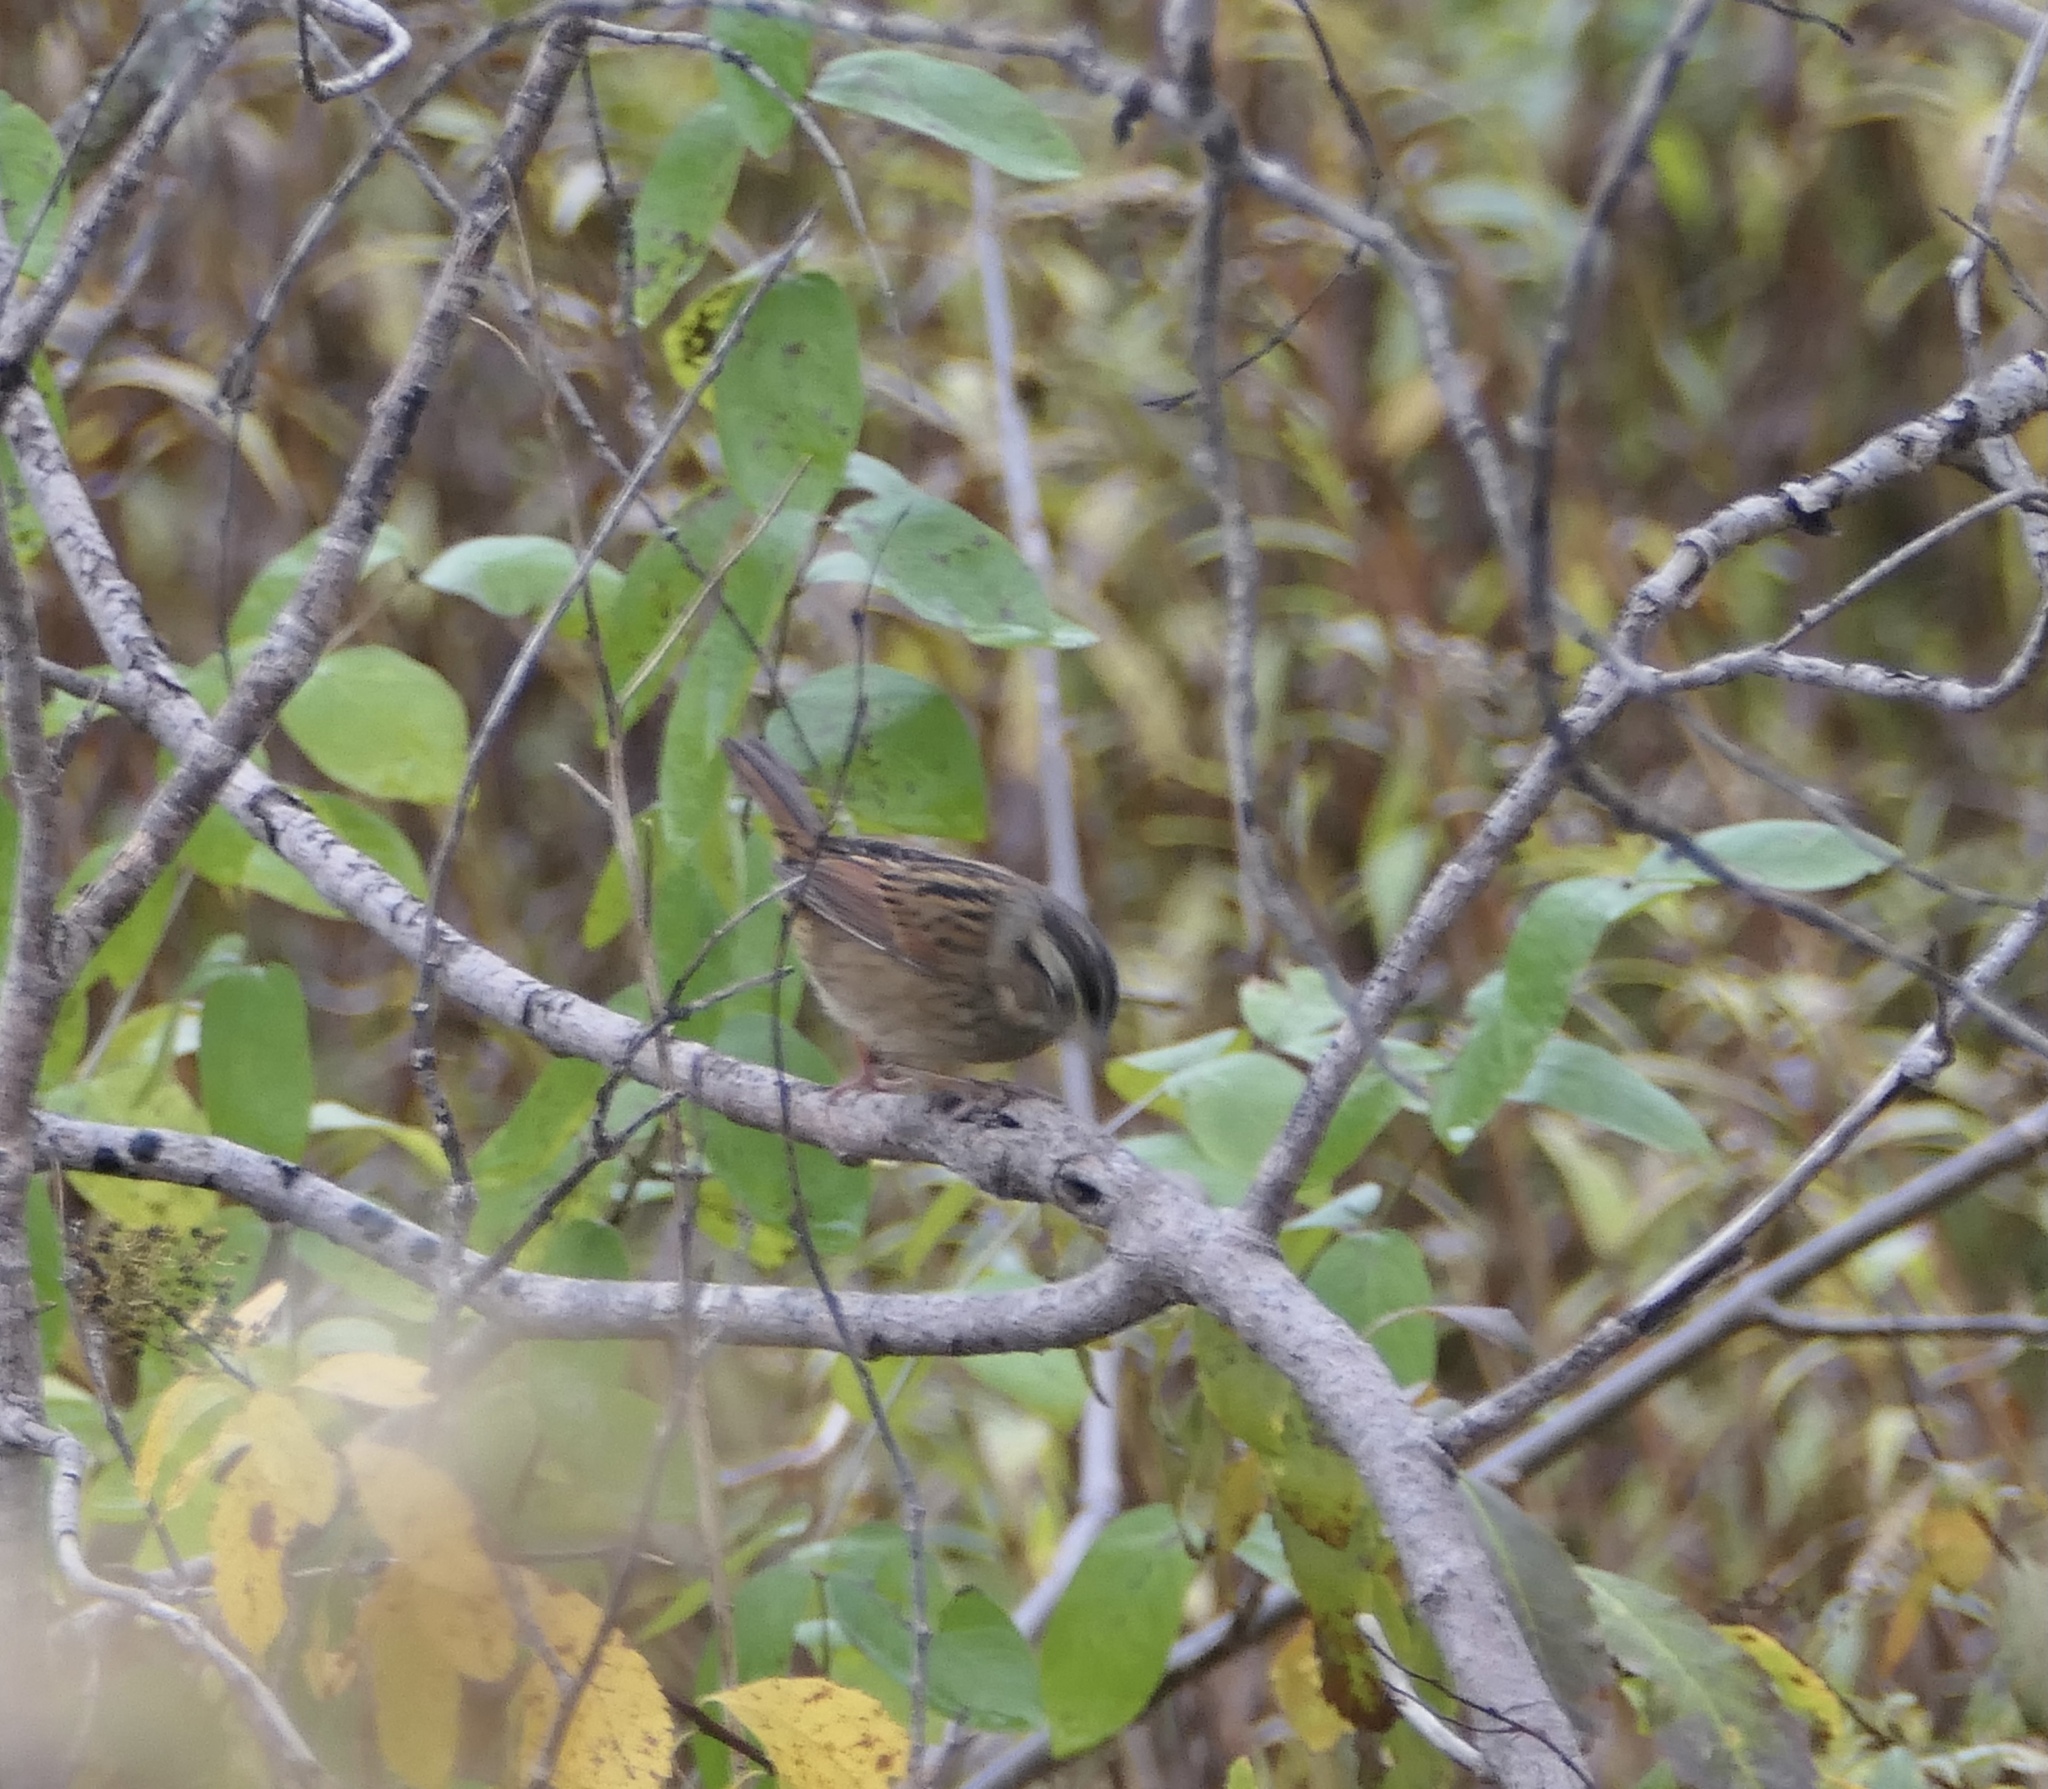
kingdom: Animalia
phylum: Chordata
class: Aves
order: Passeriformes
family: Passerellidae
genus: Melospiza
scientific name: Melospiza georgiana
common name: Swamp sparrow
